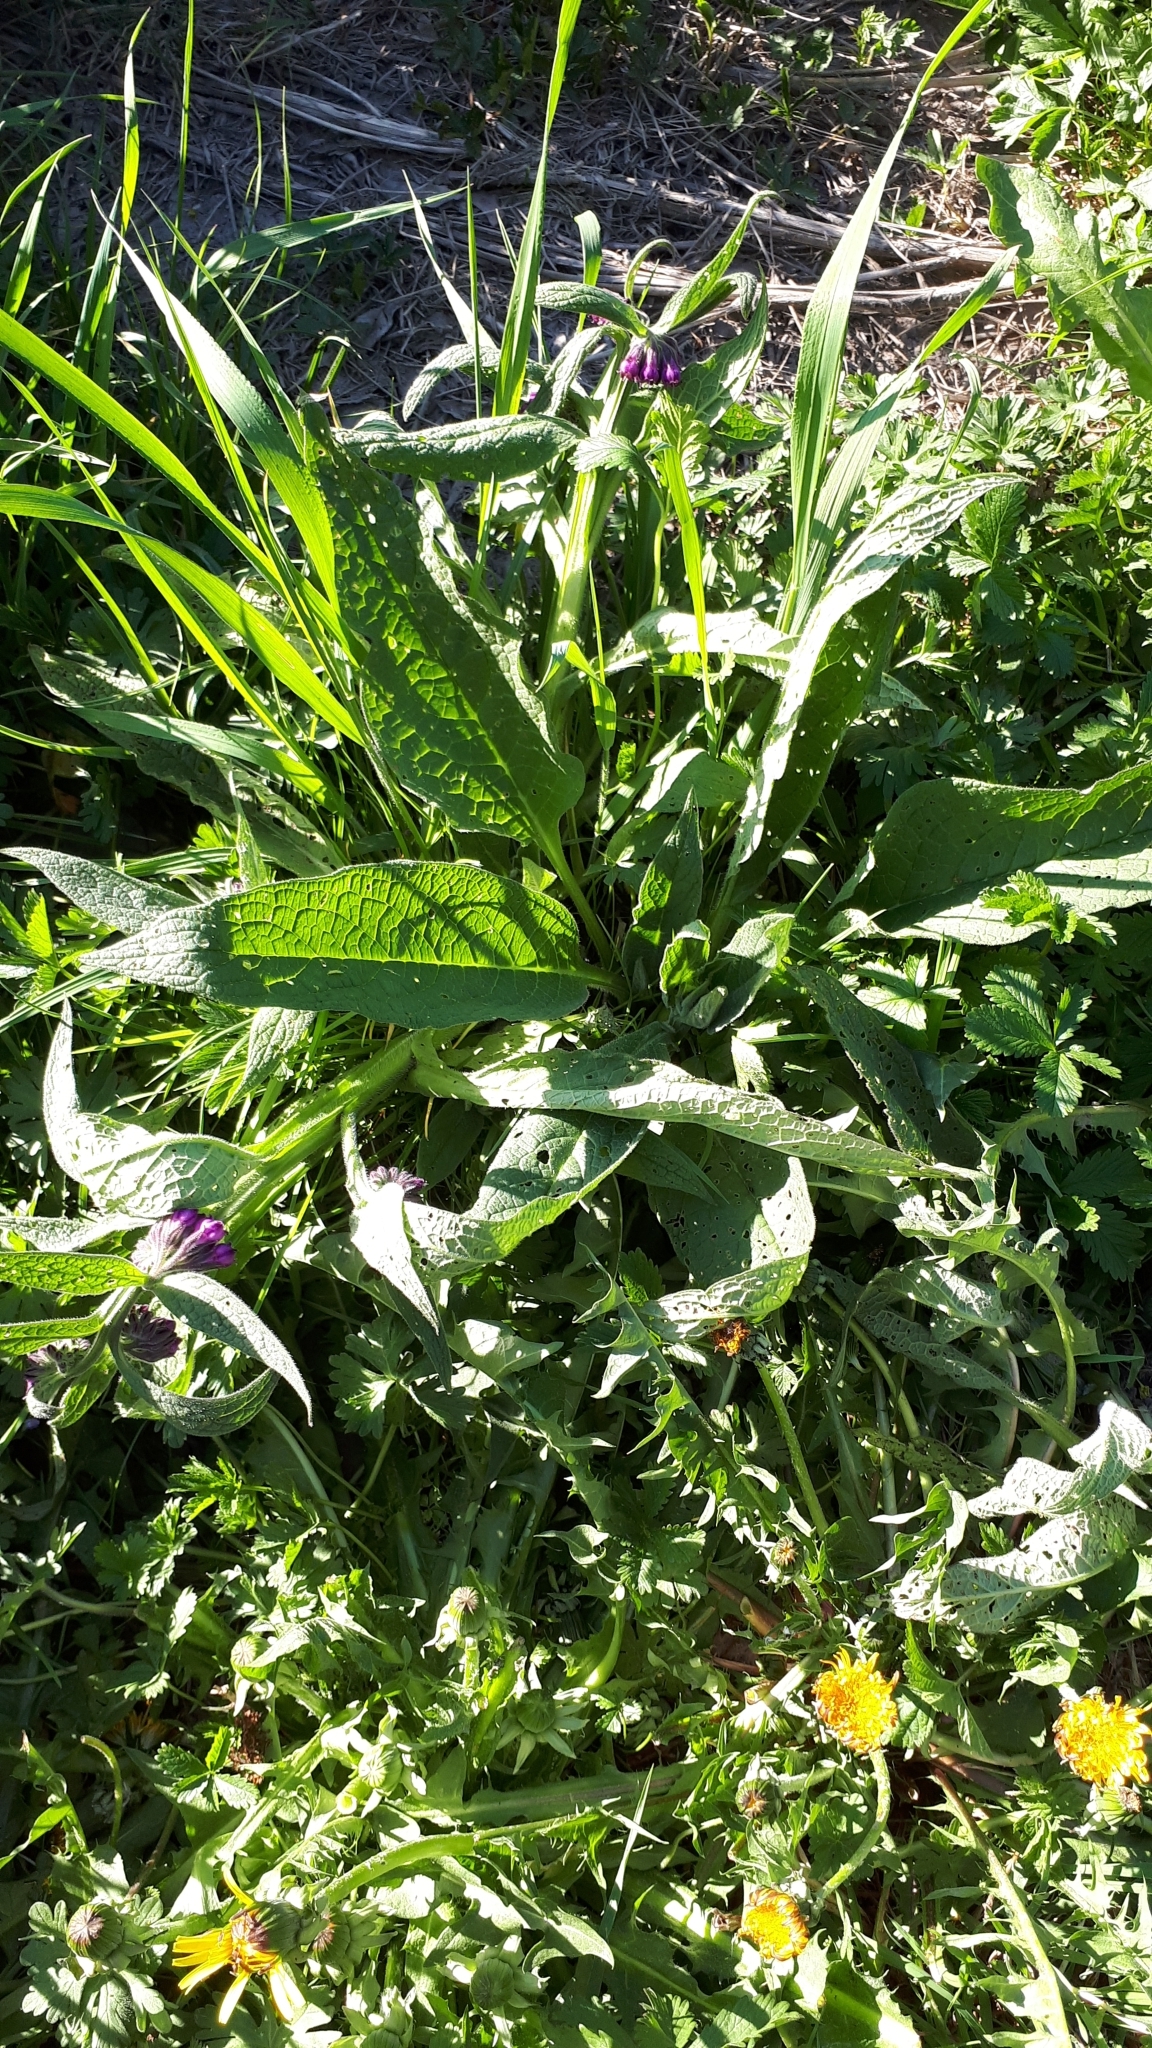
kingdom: Plantae
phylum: Tracheophyta
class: Magnoliopsida
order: Boraginales
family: Boraginaceae
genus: Symphytum
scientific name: Symphytum officinale
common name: Common comfrey
